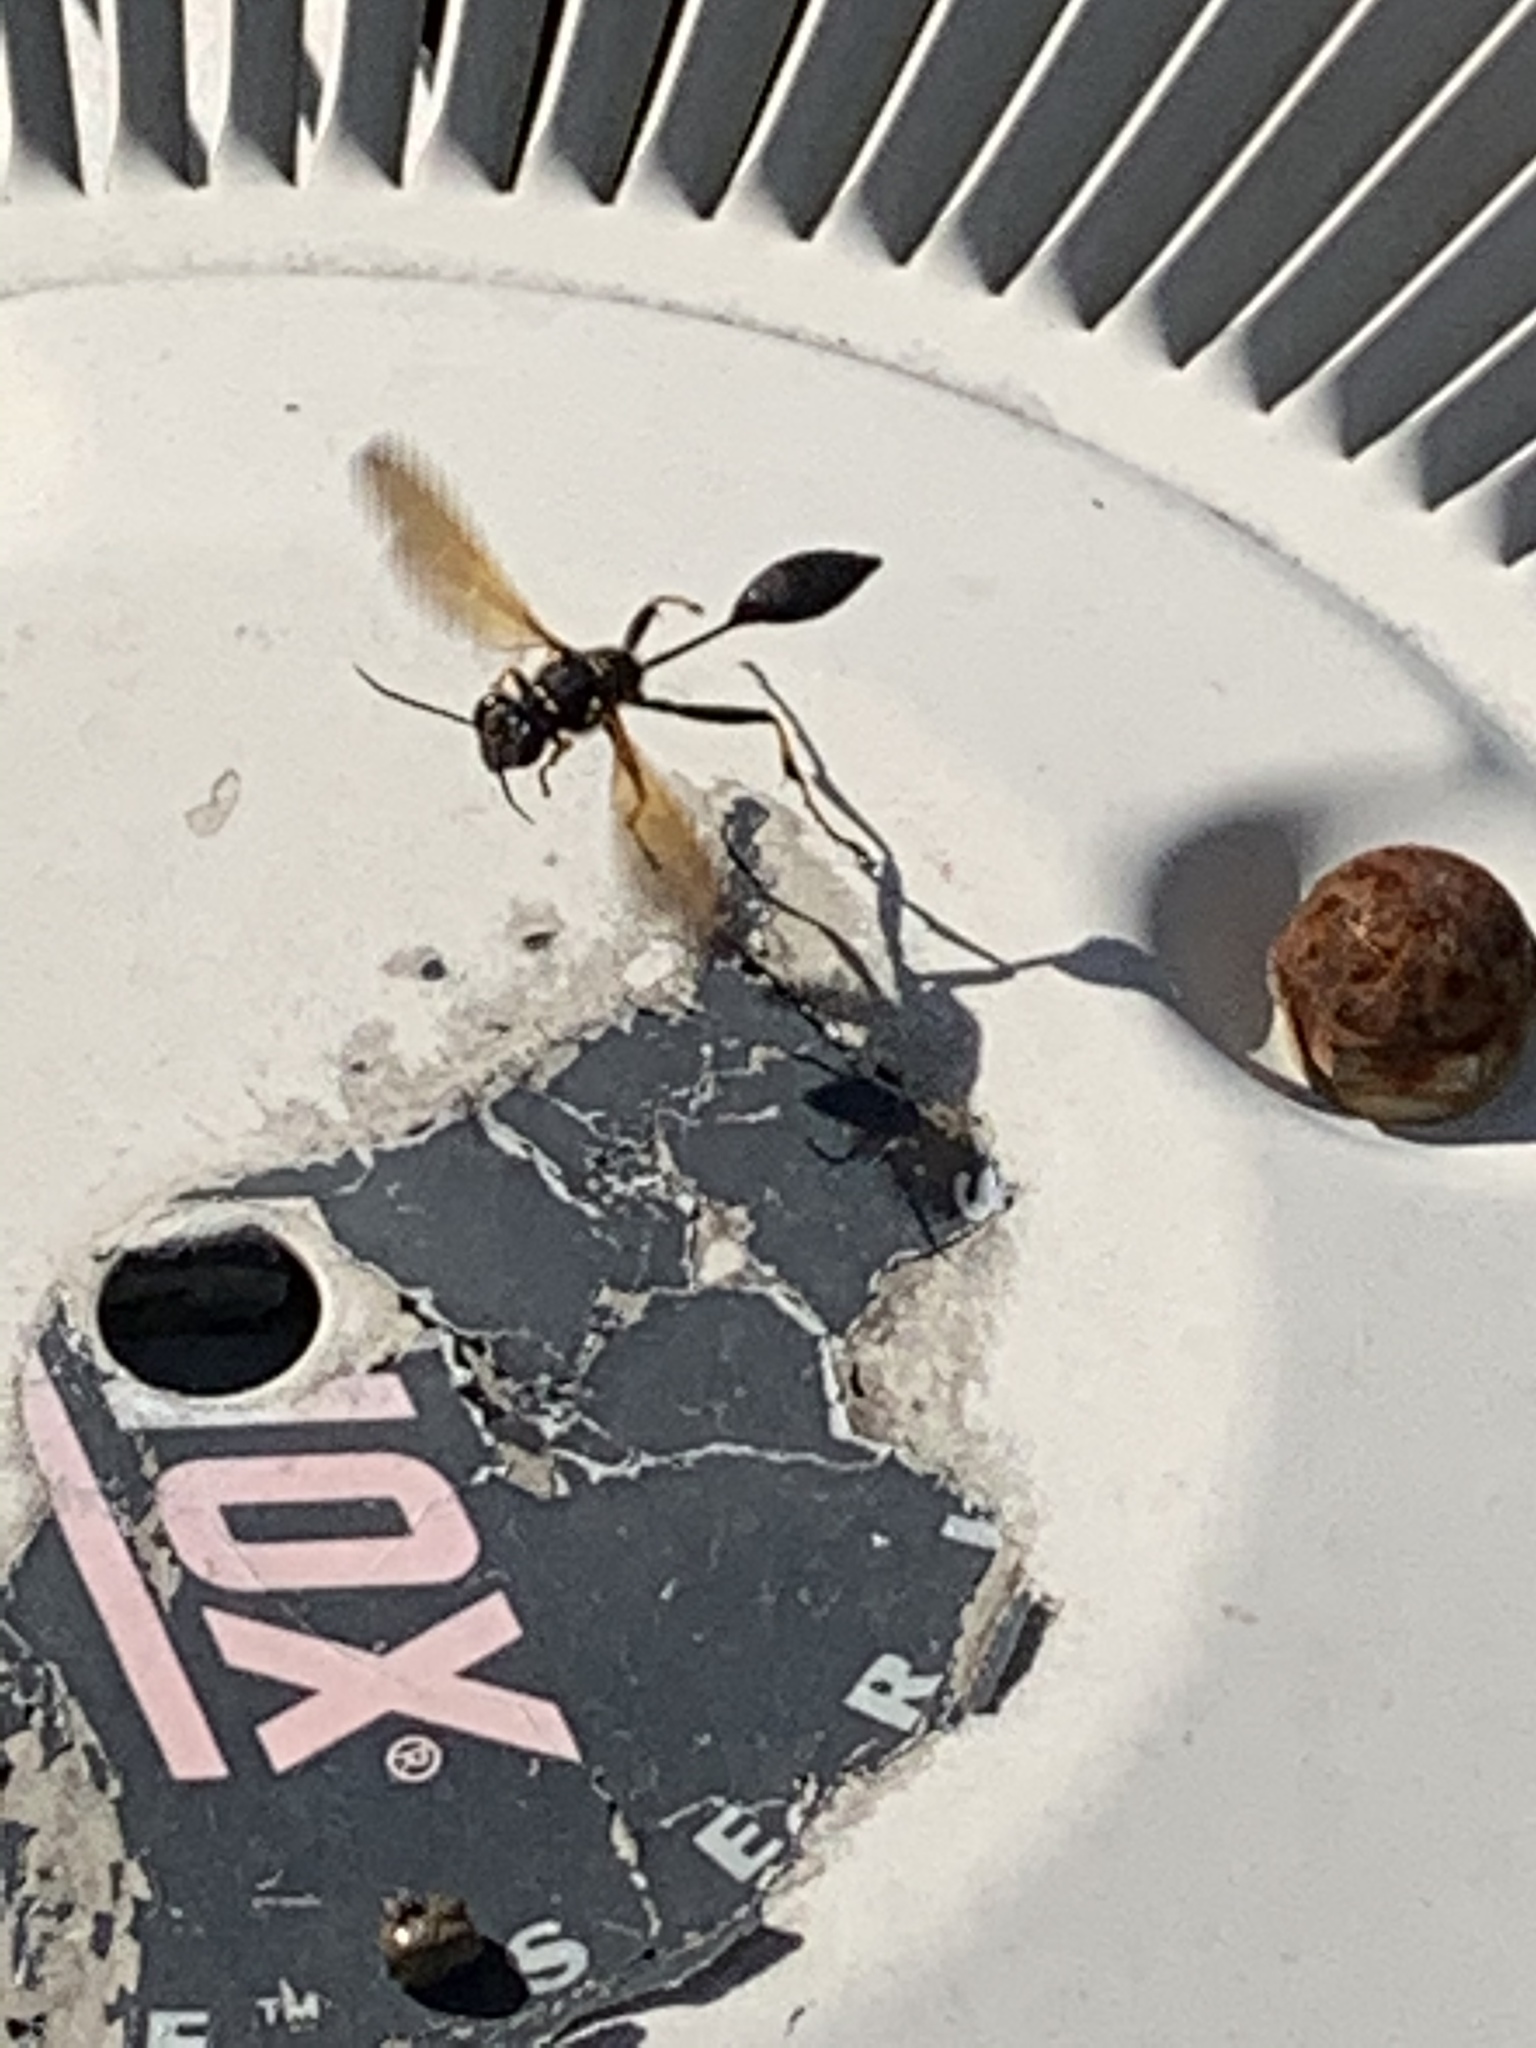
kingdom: Animalia
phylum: Arthropoda
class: Insecta
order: Hymenoptera
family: Sphecidae
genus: Sceliphron
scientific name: Sceliphron caementarium
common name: Mud dauber
